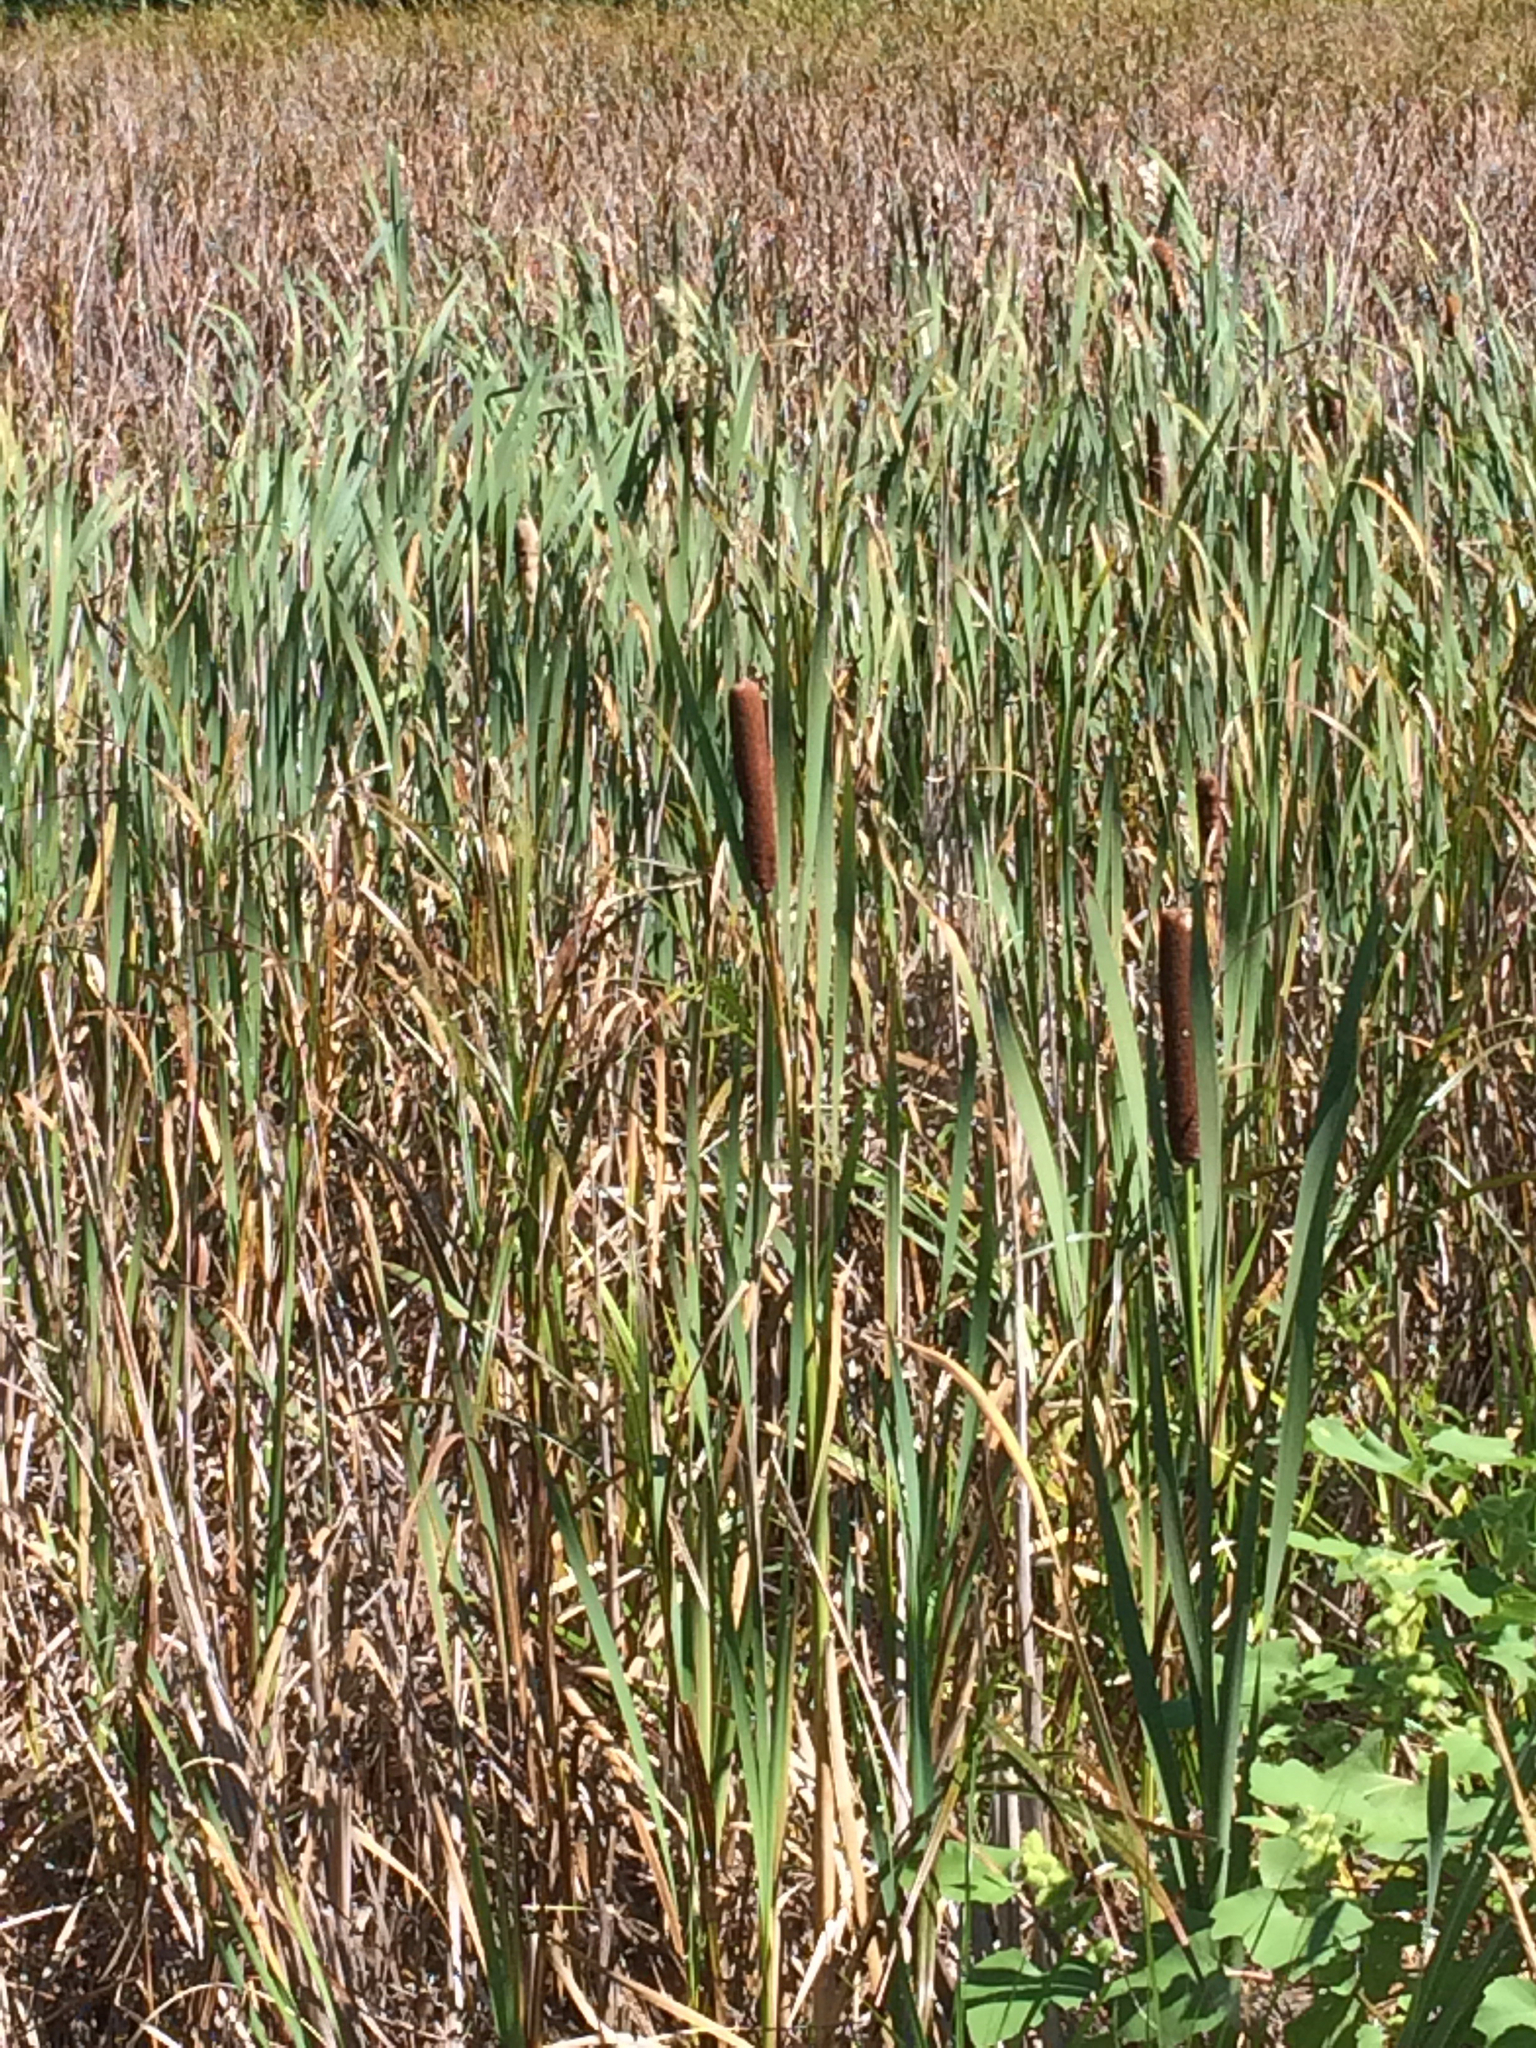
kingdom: Plantae
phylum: Tracheophyta
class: Liliopsida
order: Poales
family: Typhaceae
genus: Typha
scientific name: Typha latifolia
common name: Broadleaf cattail
